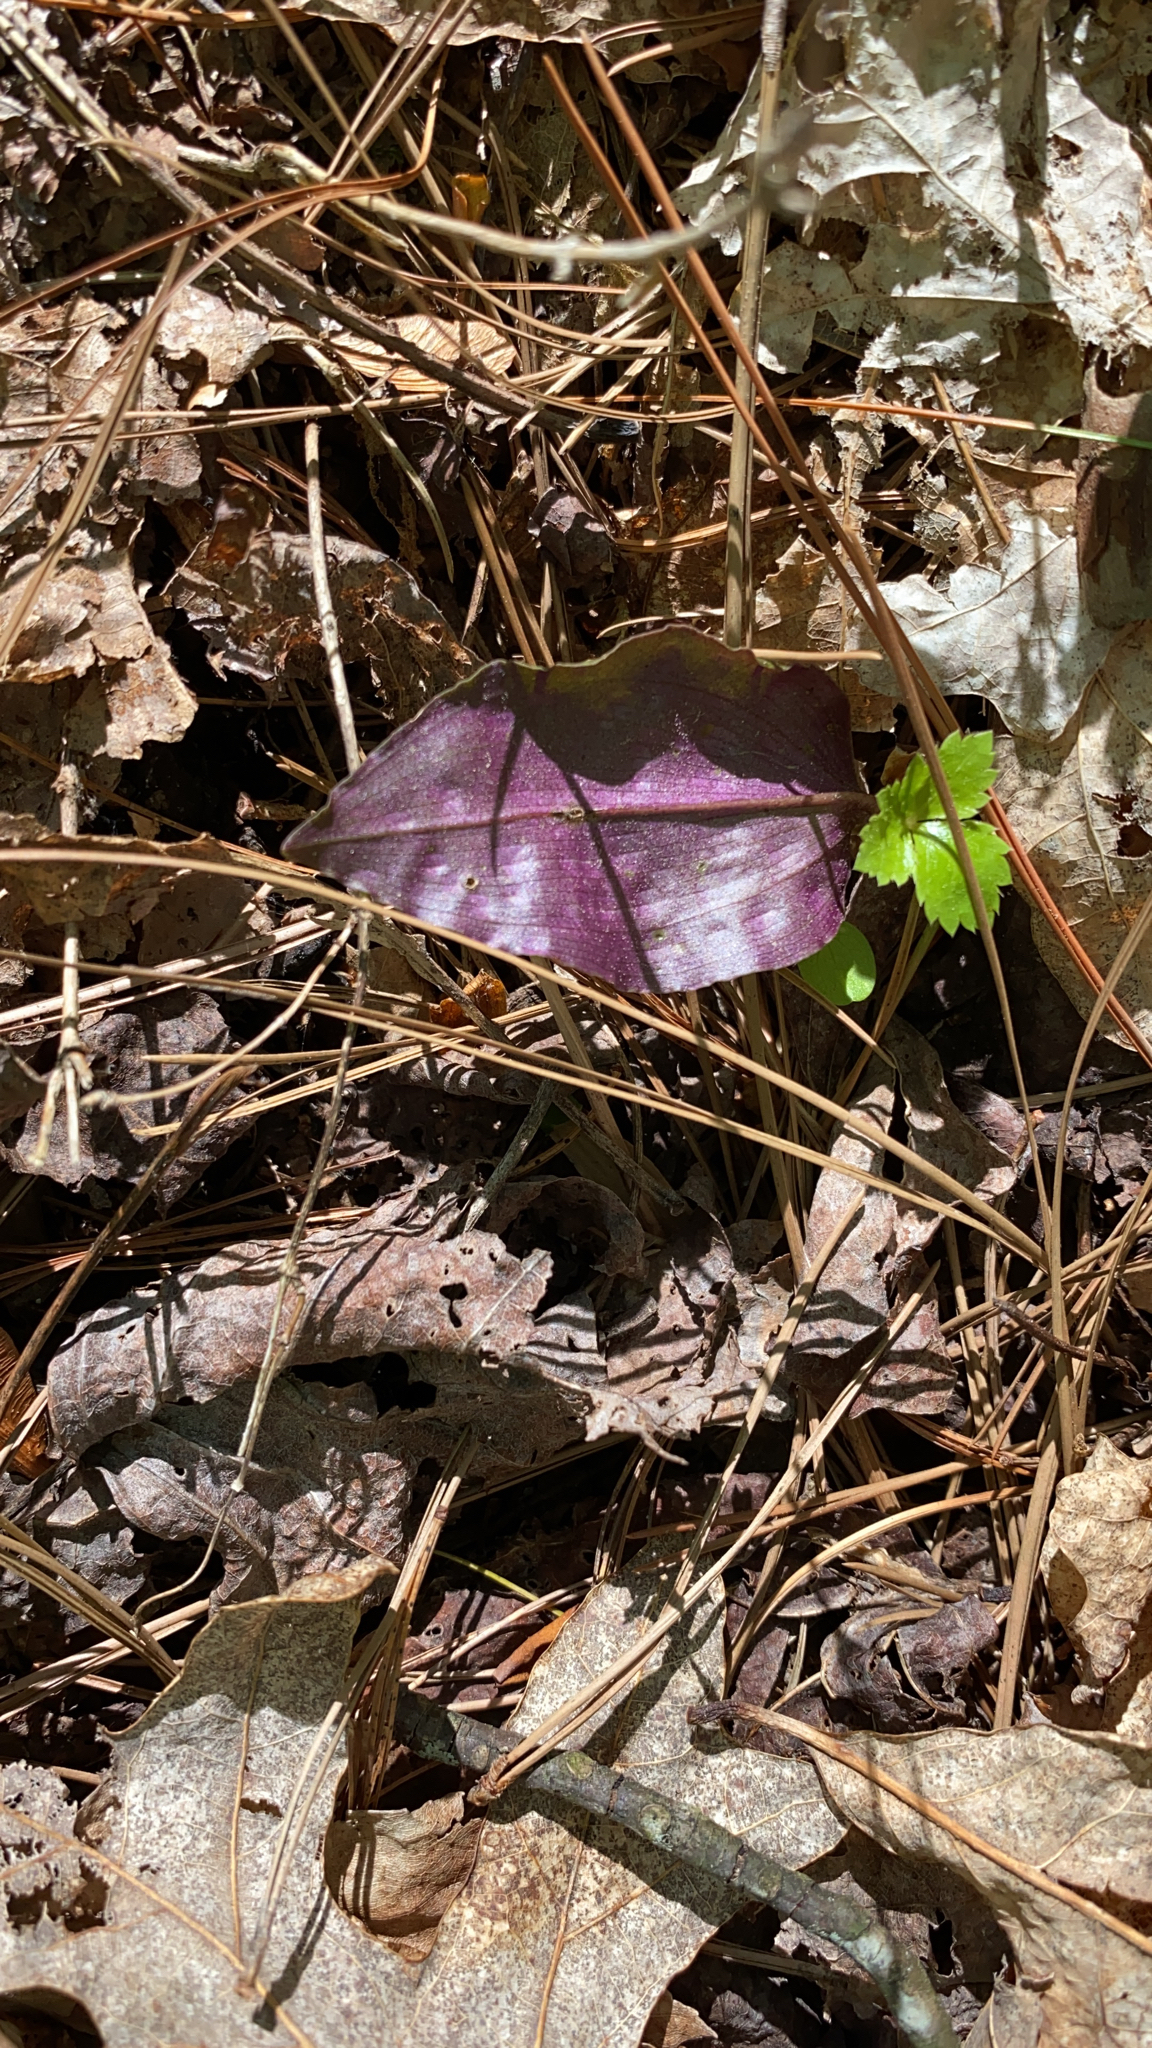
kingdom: Plantae
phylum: Tracheophyta
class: Liliopsida
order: Asparagales
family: Orchidaceae
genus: Tipularia
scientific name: Tipularia discolor
